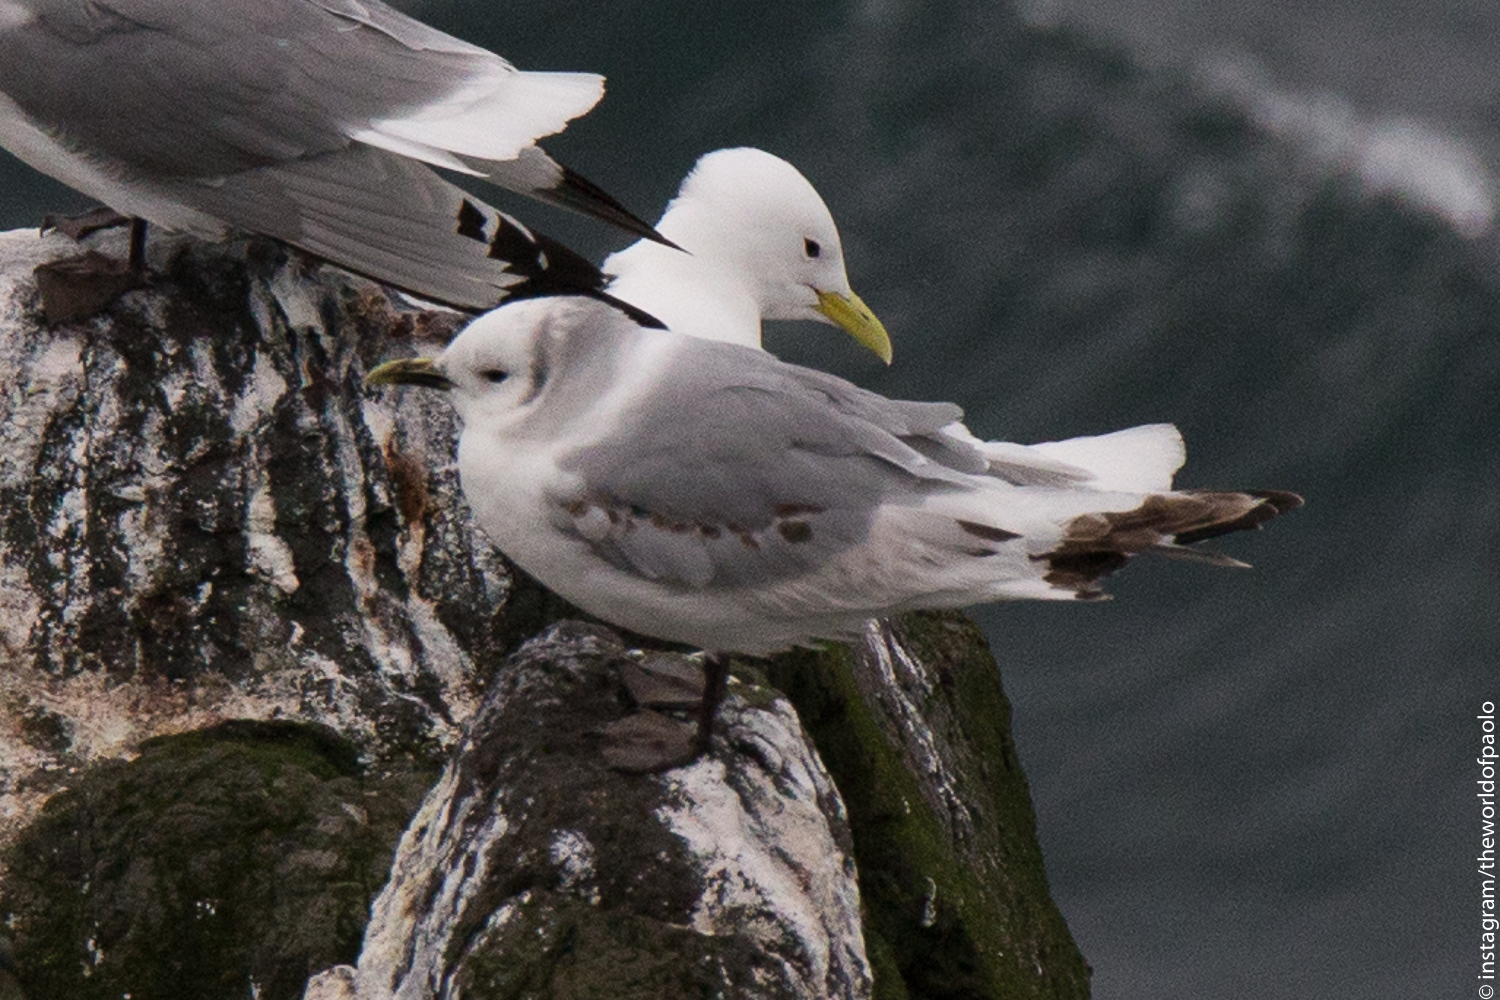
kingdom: Animalia
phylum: Chordata
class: Aves
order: Charadriiformes
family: Laridae
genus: Rissa
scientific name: Rissa tridactyla
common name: Black-legged kittiwake
